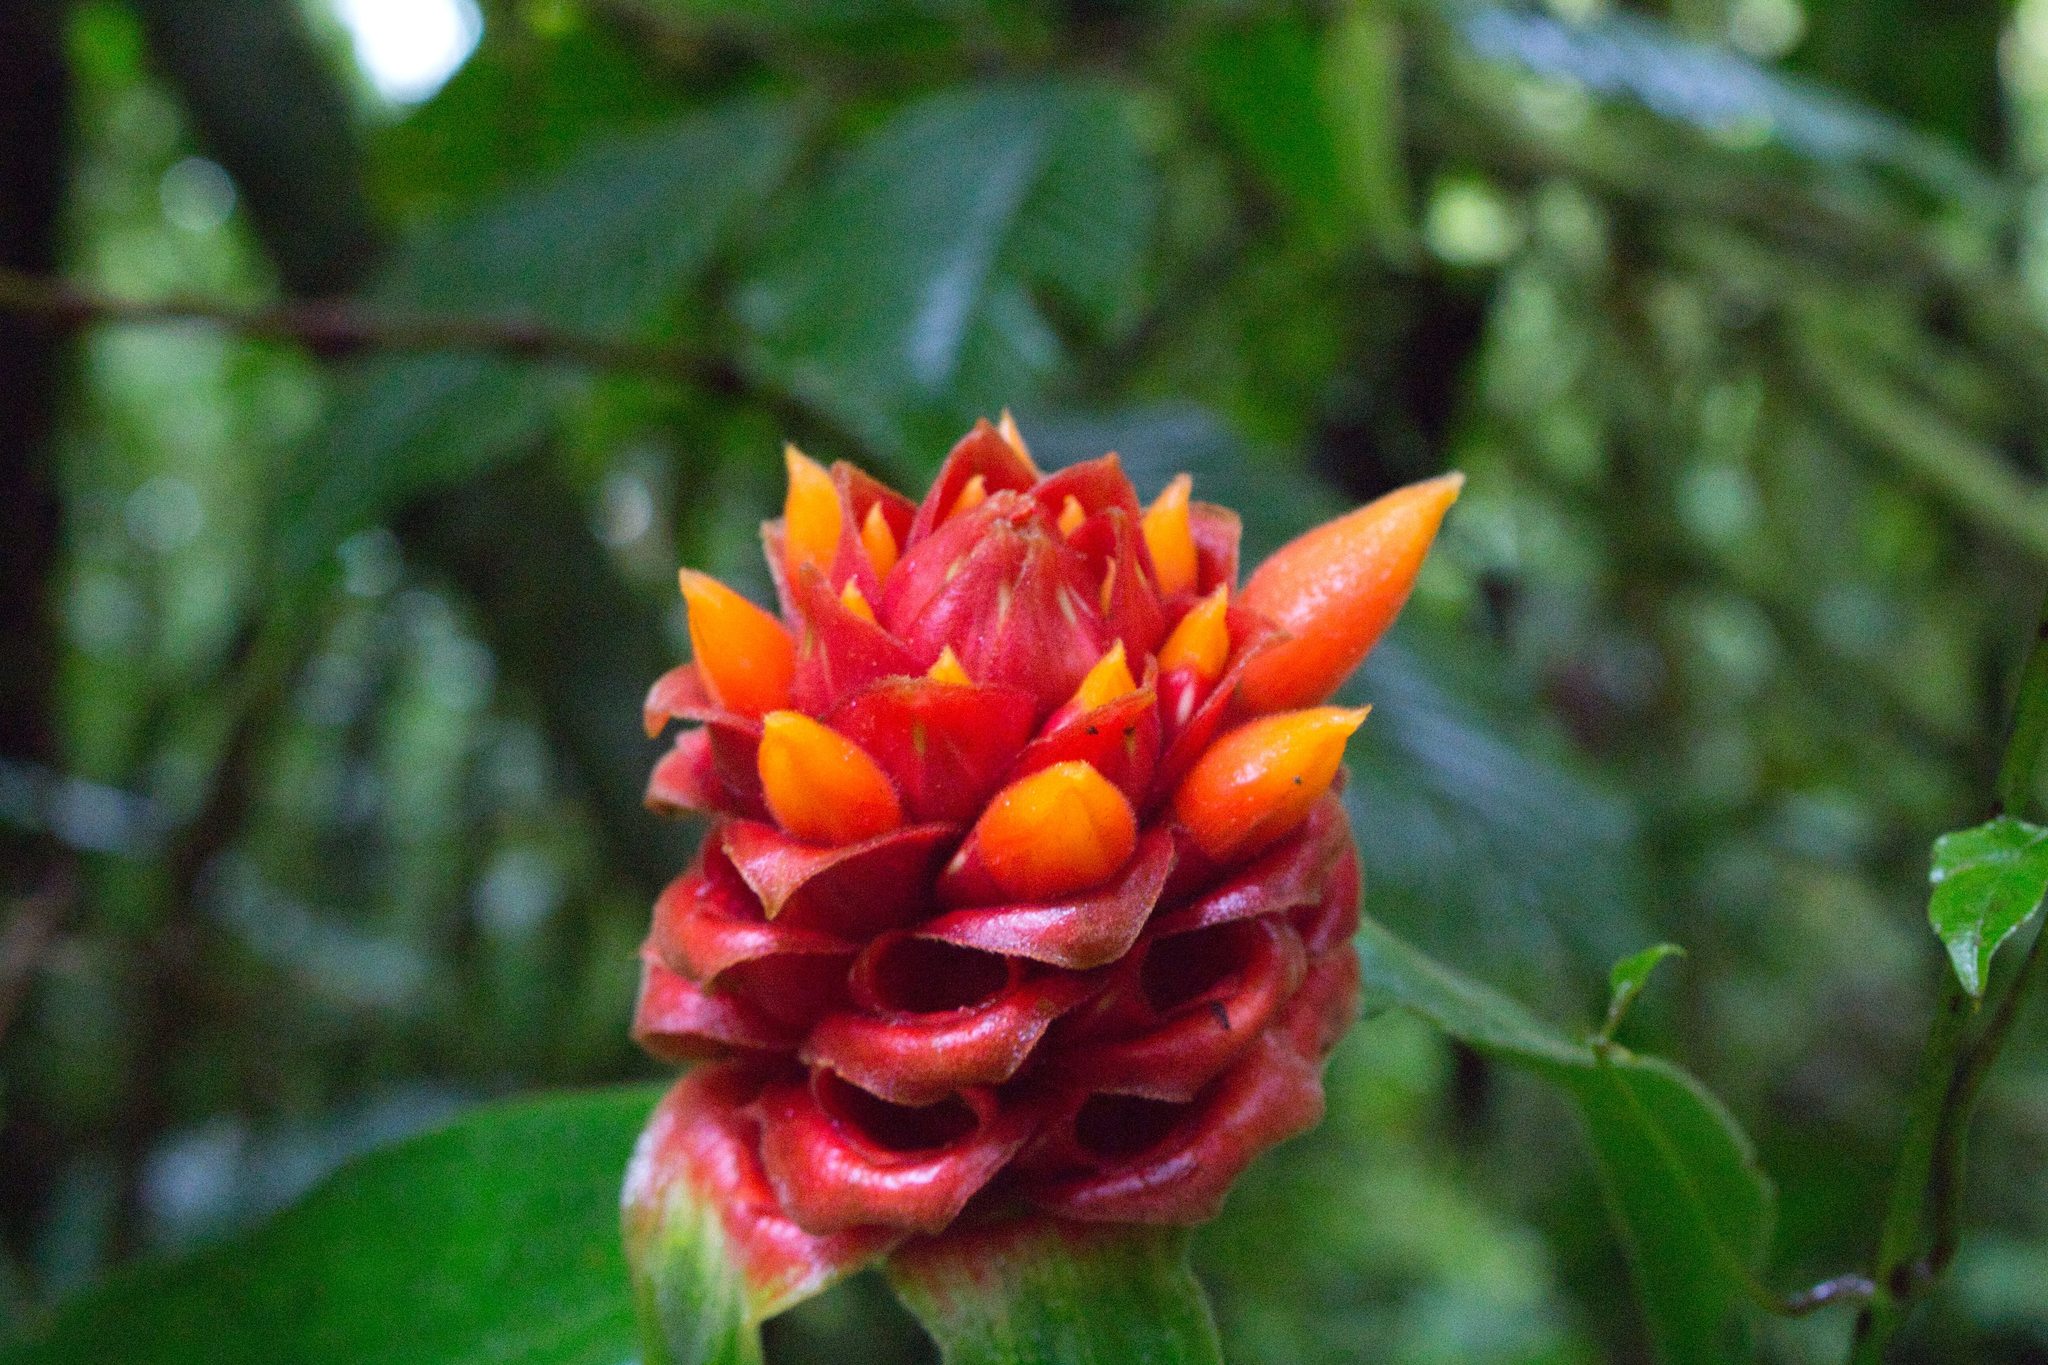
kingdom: Plantae
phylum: Tracheophyta
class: Liliopsida
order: Zingiberales
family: Costaceae
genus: Costus
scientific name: Costus montanus
